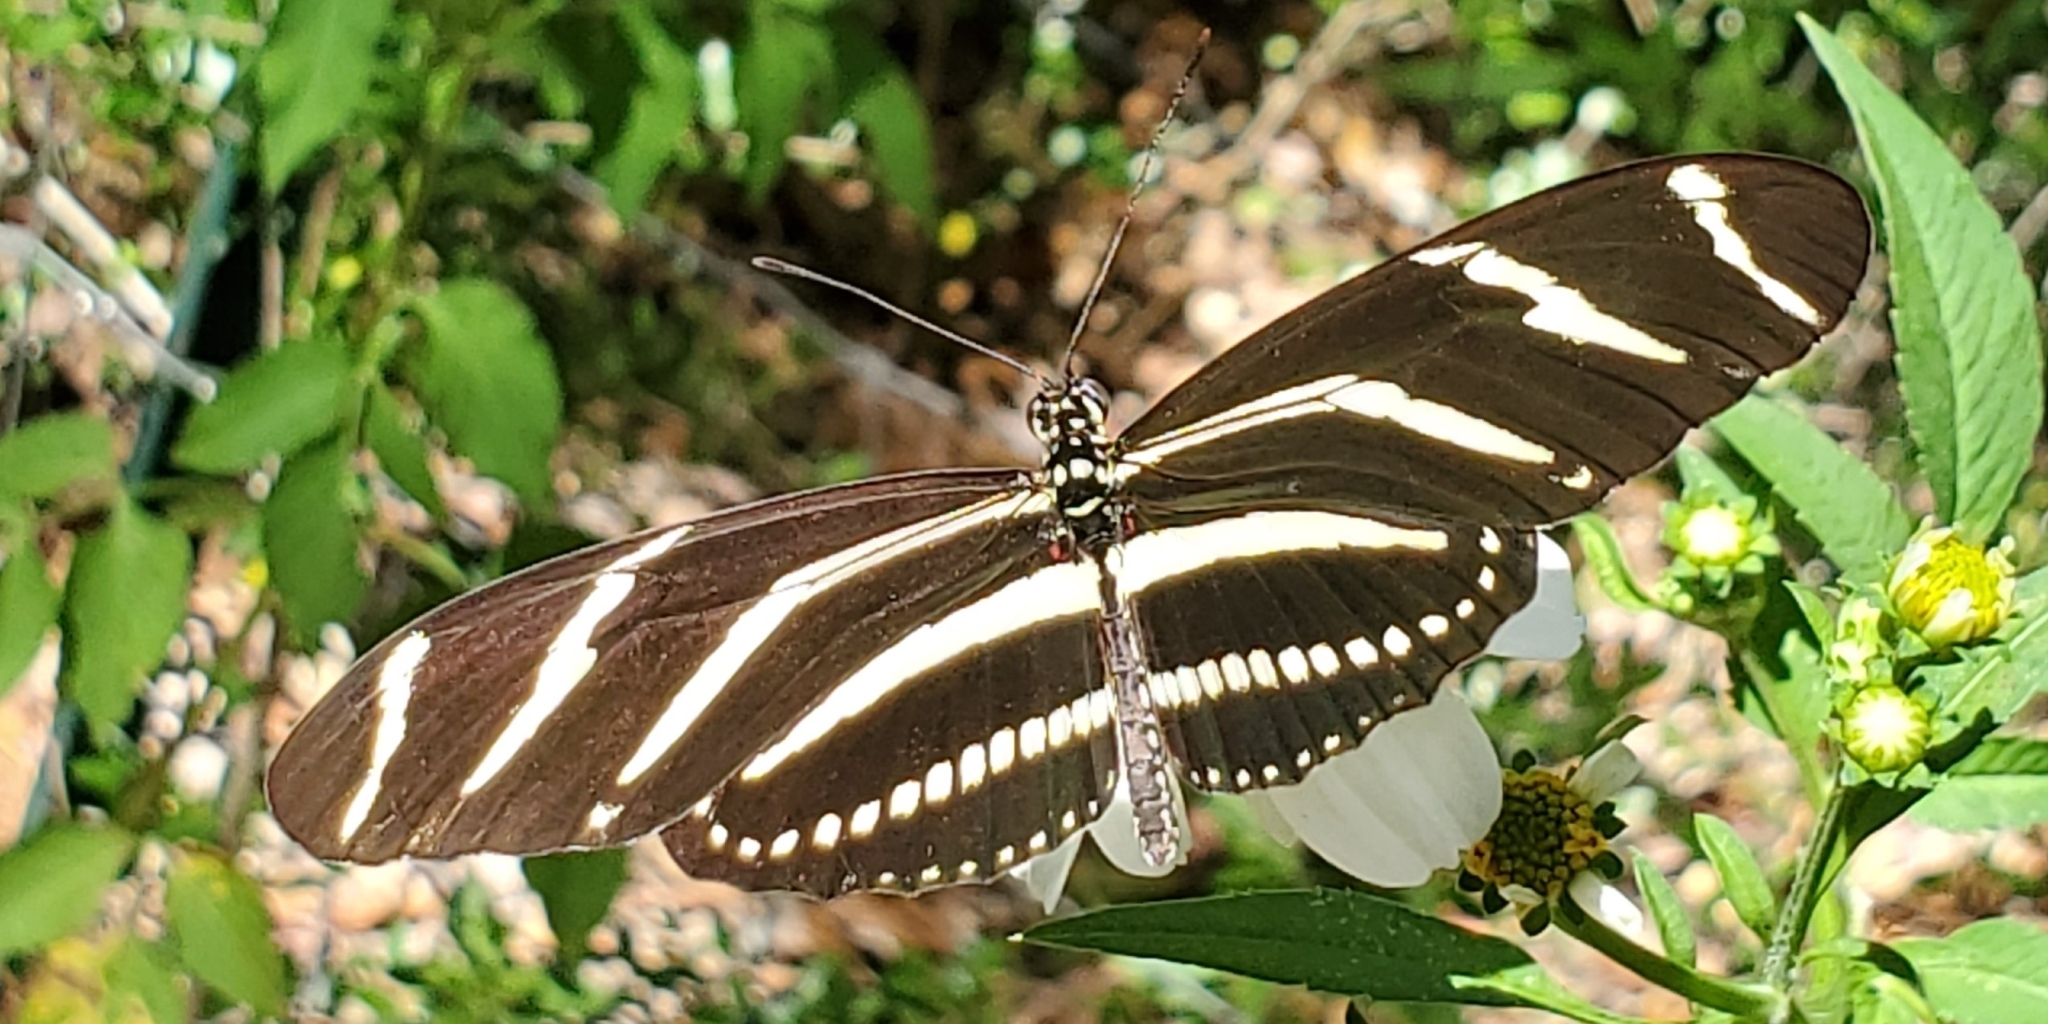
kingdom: Animalia
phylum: Arthropoda
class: Insecta
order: Lepidoptera
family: Nymphalidae
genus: Heliconius
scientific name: Heliconius charithonia
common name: Zebra long wing
